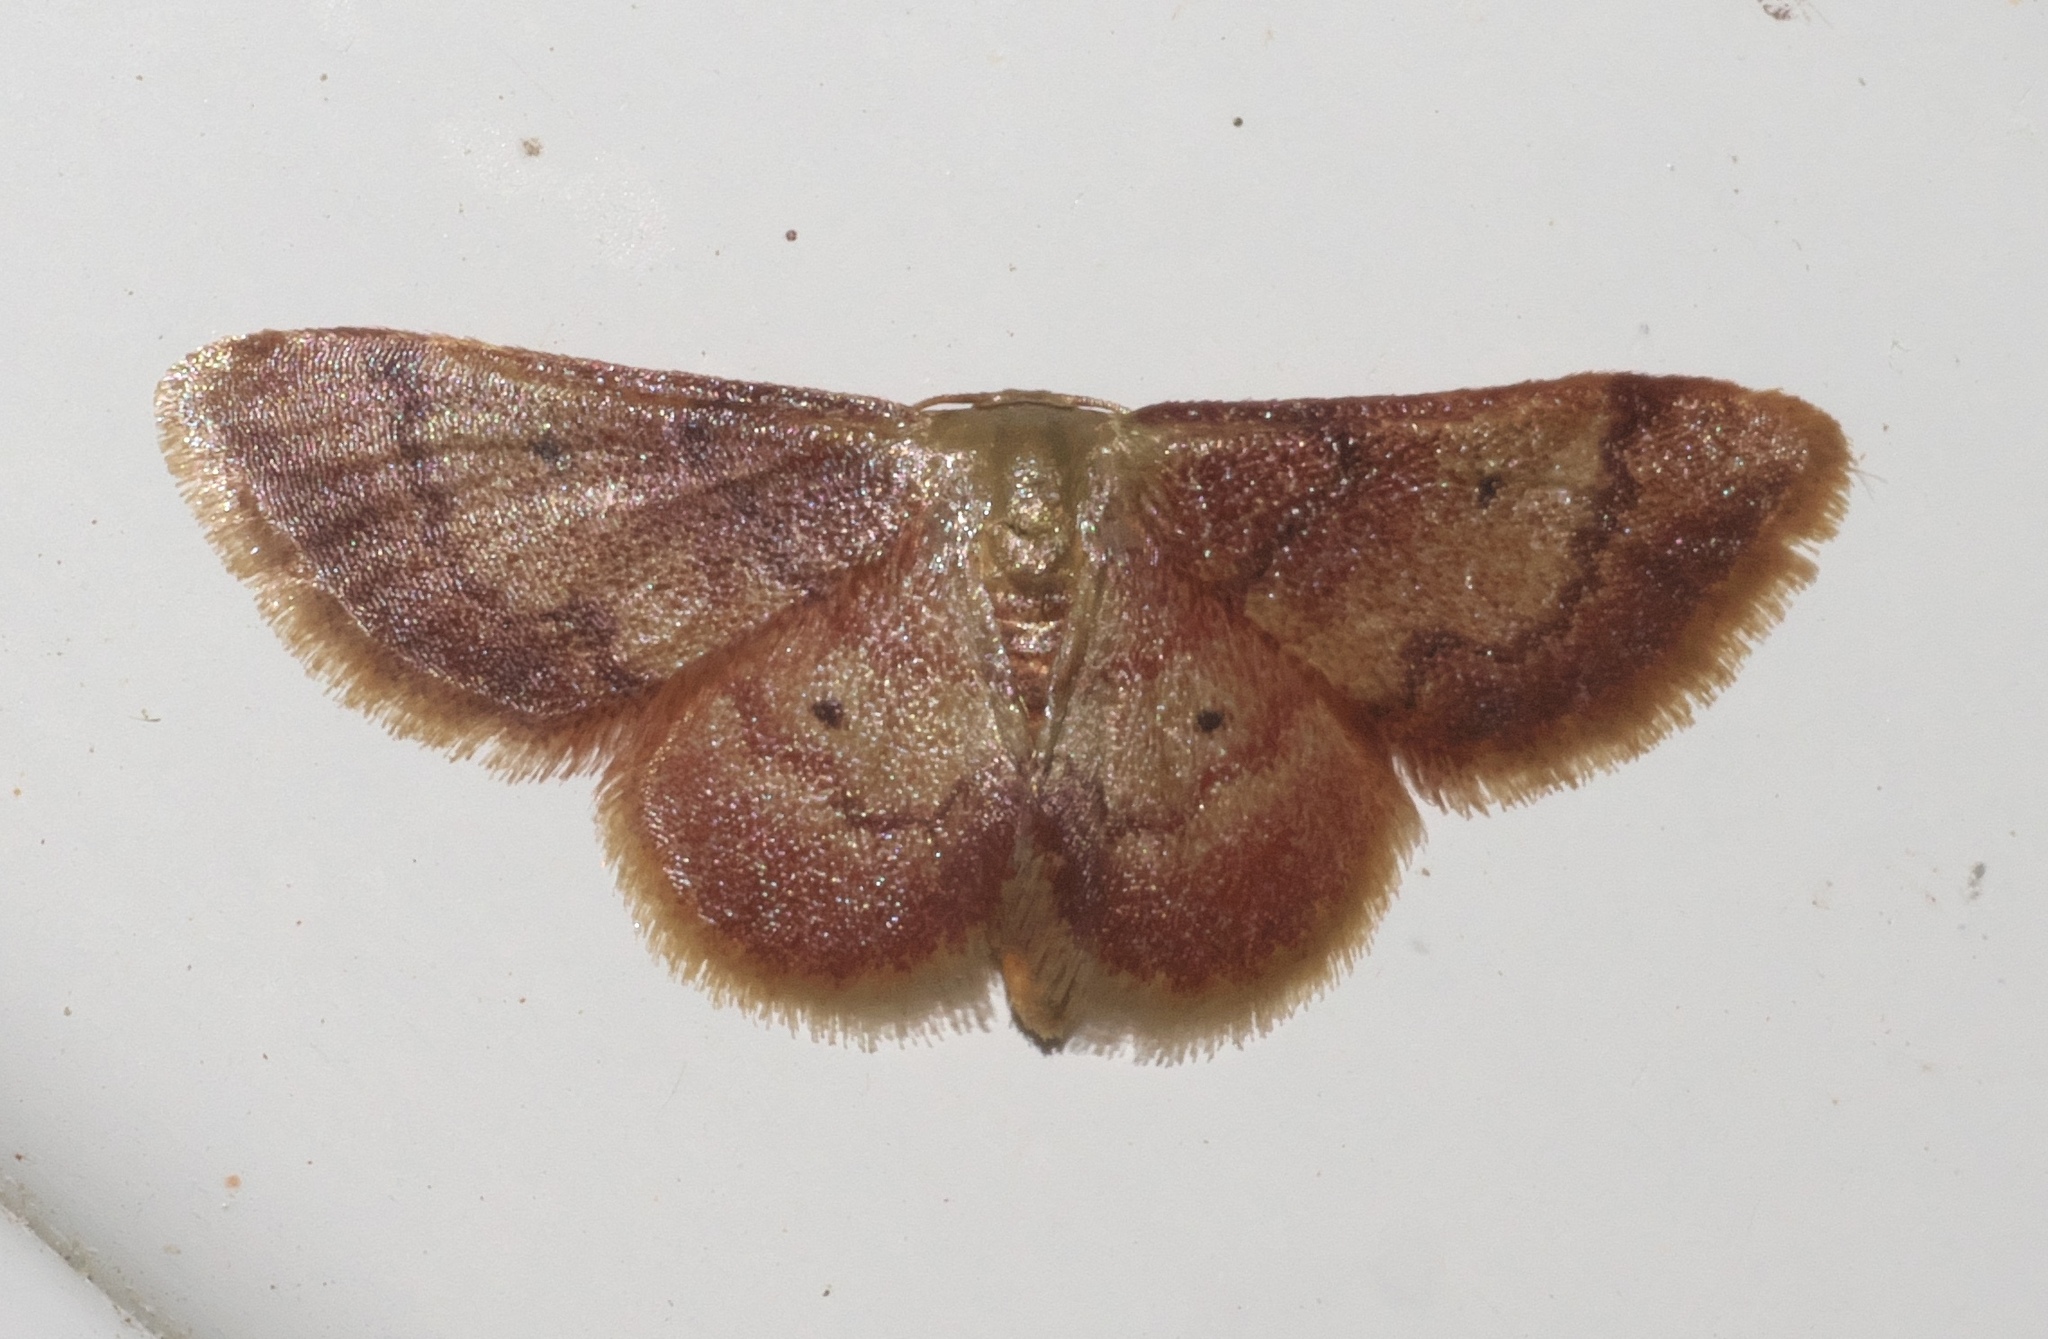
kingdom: Animalia
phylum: Arthropoda
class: Insecta
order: Lepidoptera
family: Geometridae
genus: Idaea
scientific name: Idaea demissaria
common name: Red-bordered wave
